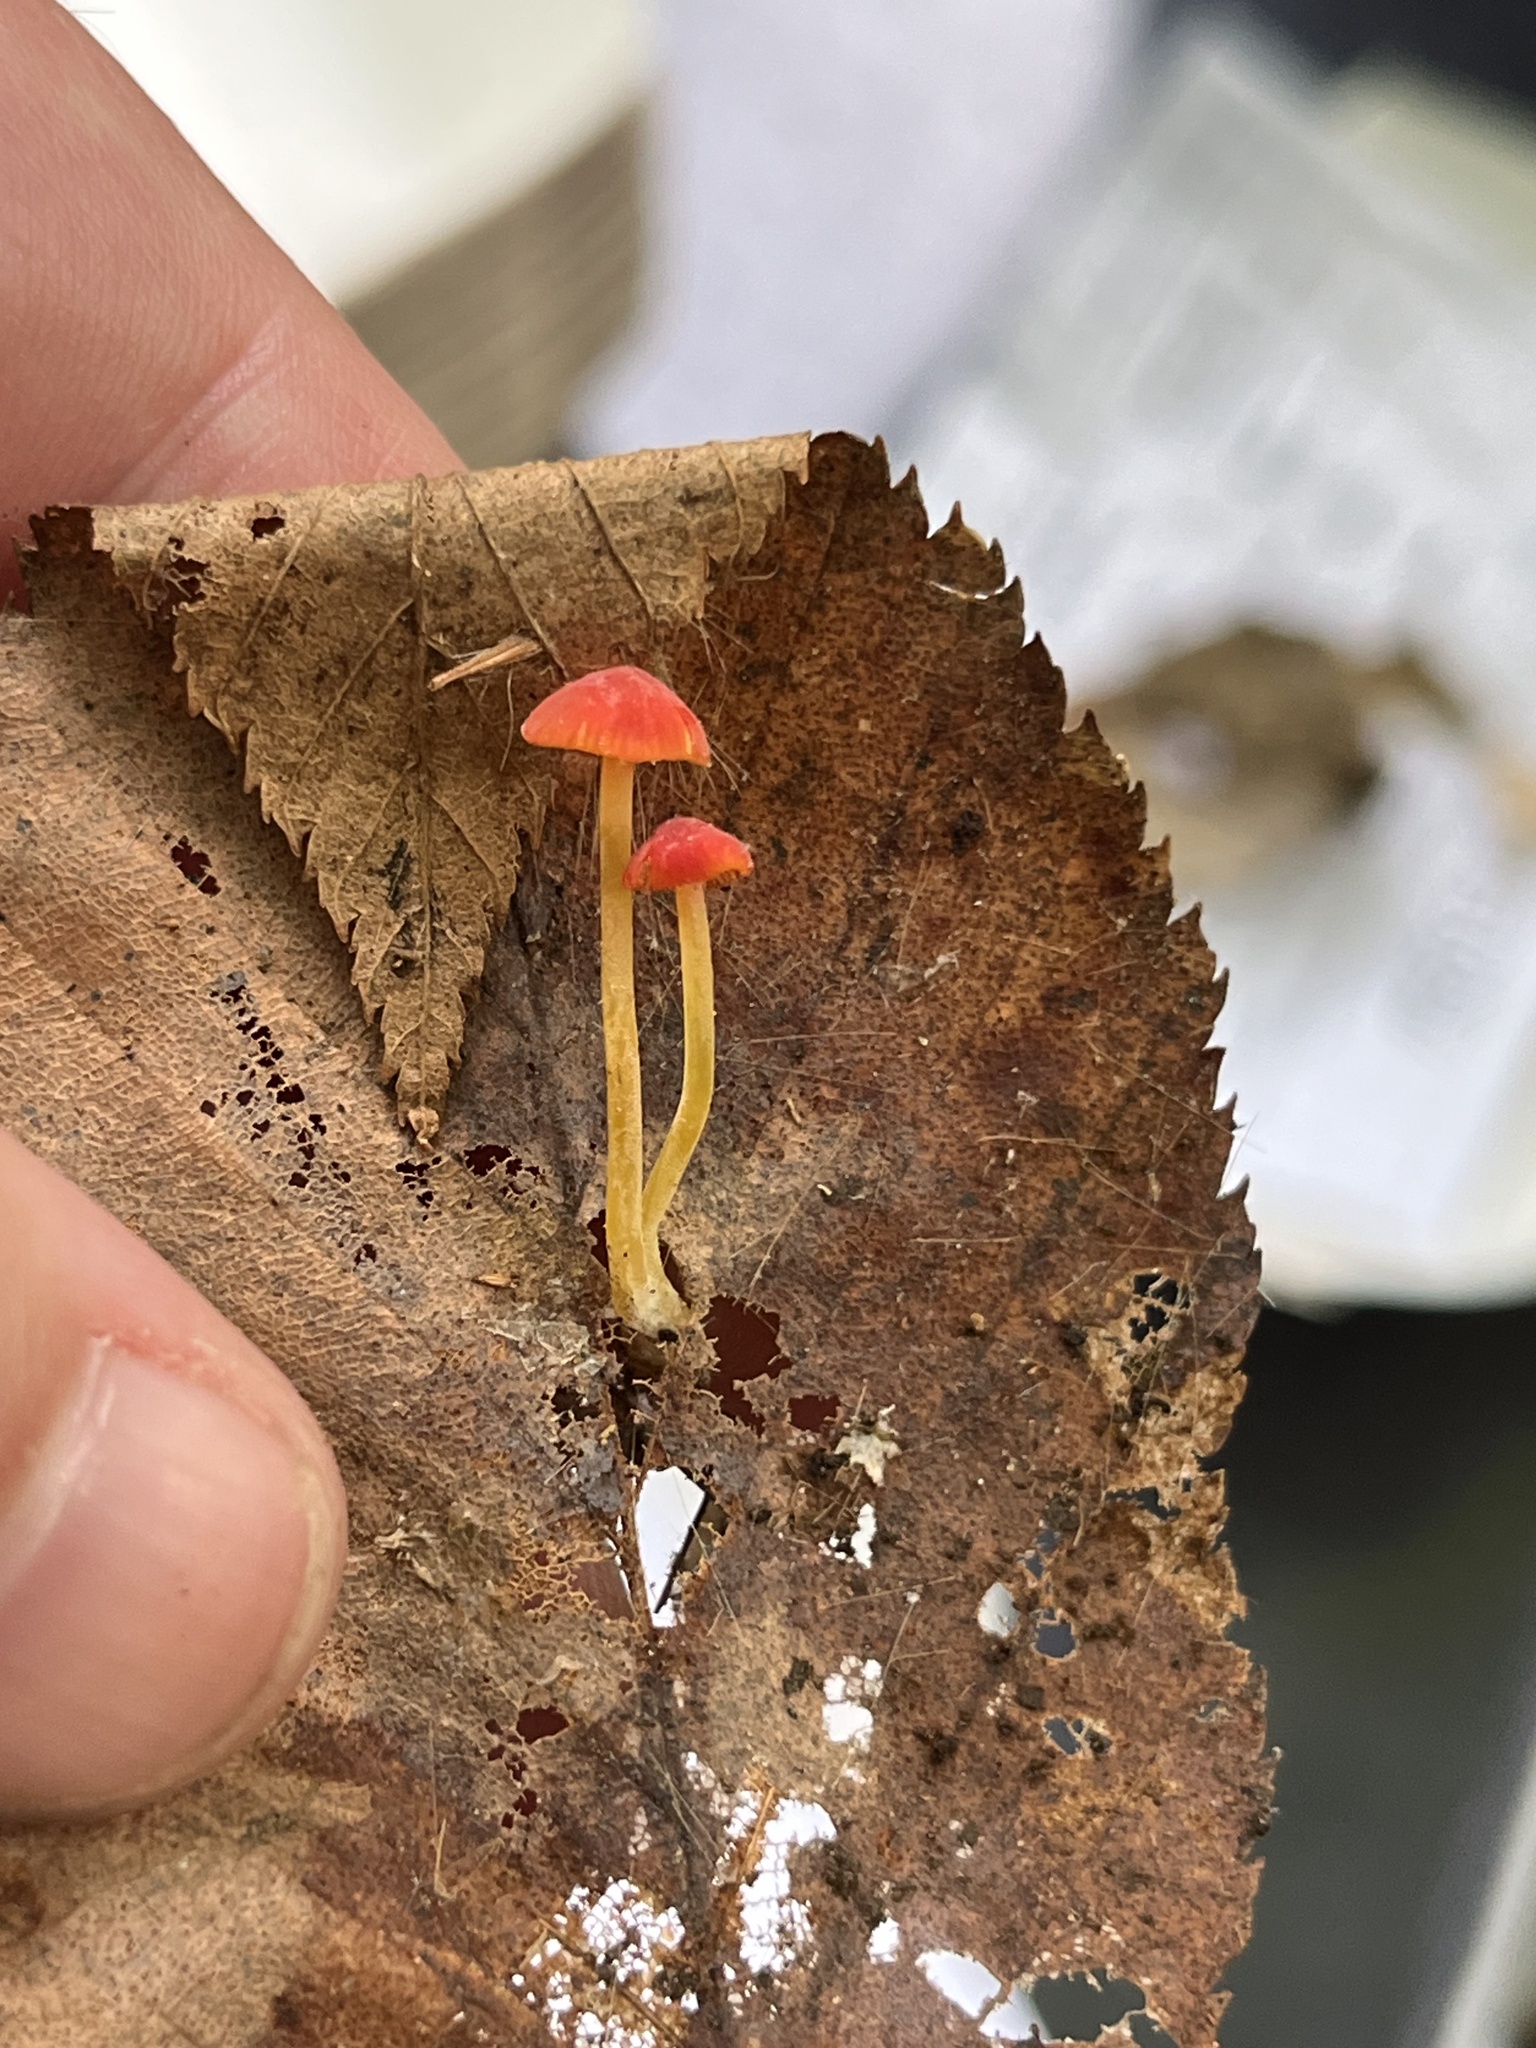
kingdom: Fungi
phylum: Basidiomycota
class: Agaricomycetes
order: Agaricales
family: Mycenaceae
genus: Mycena
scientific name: Mycena acicula
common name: Orange bonnet
